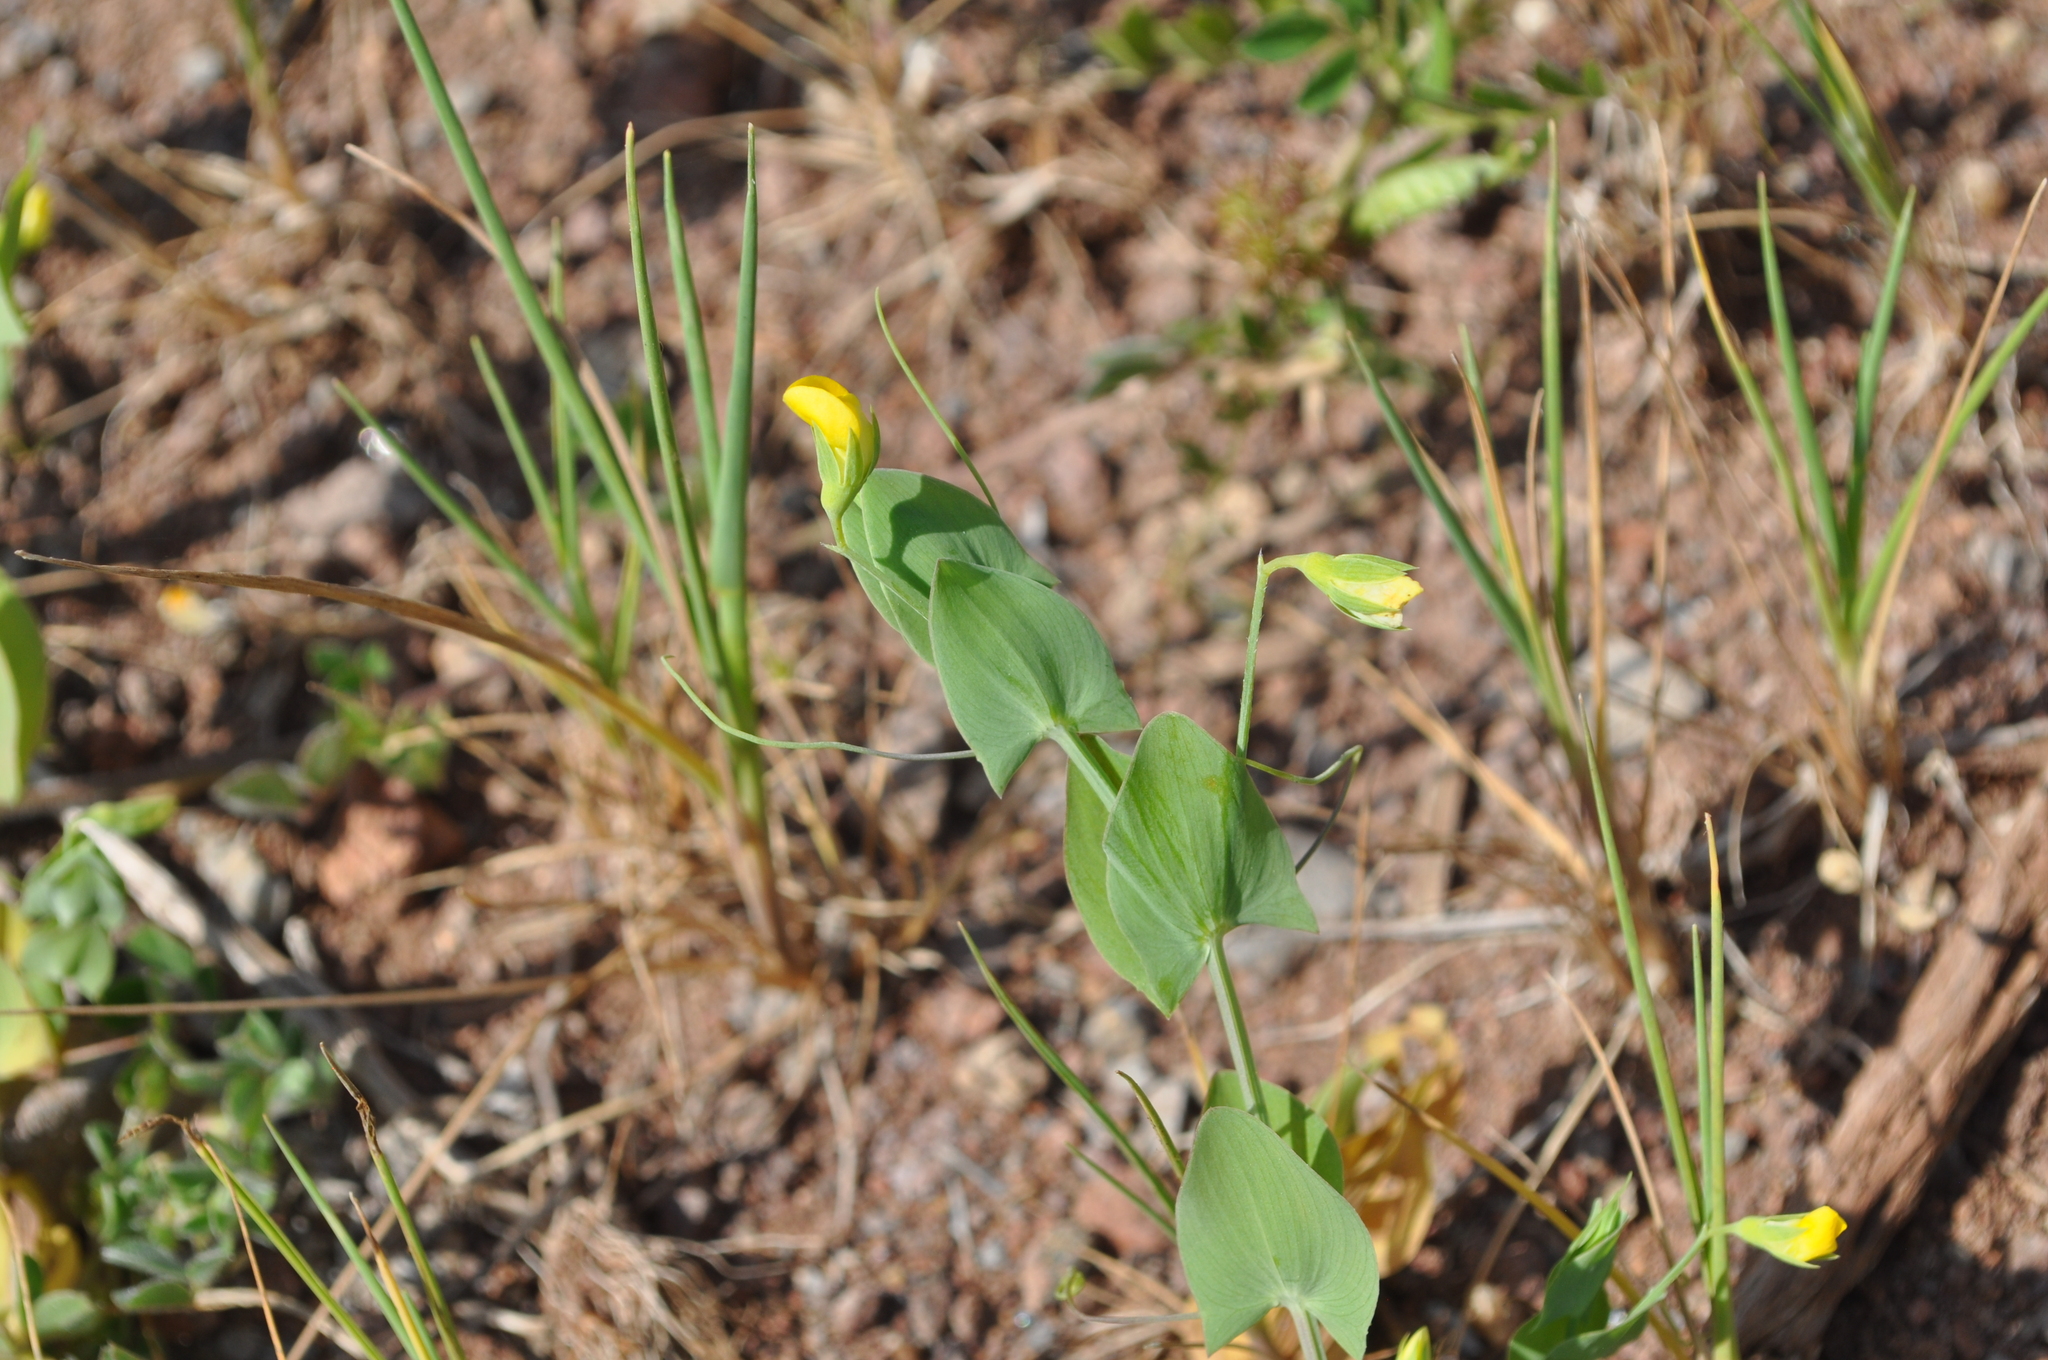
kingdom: Plantae
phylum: Tracheophyta
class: Magnoliopsida
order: Fabales
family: Fabaceae
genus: Lathyrus
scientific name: Lathyrus aphaca
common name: Yellow vetchling
